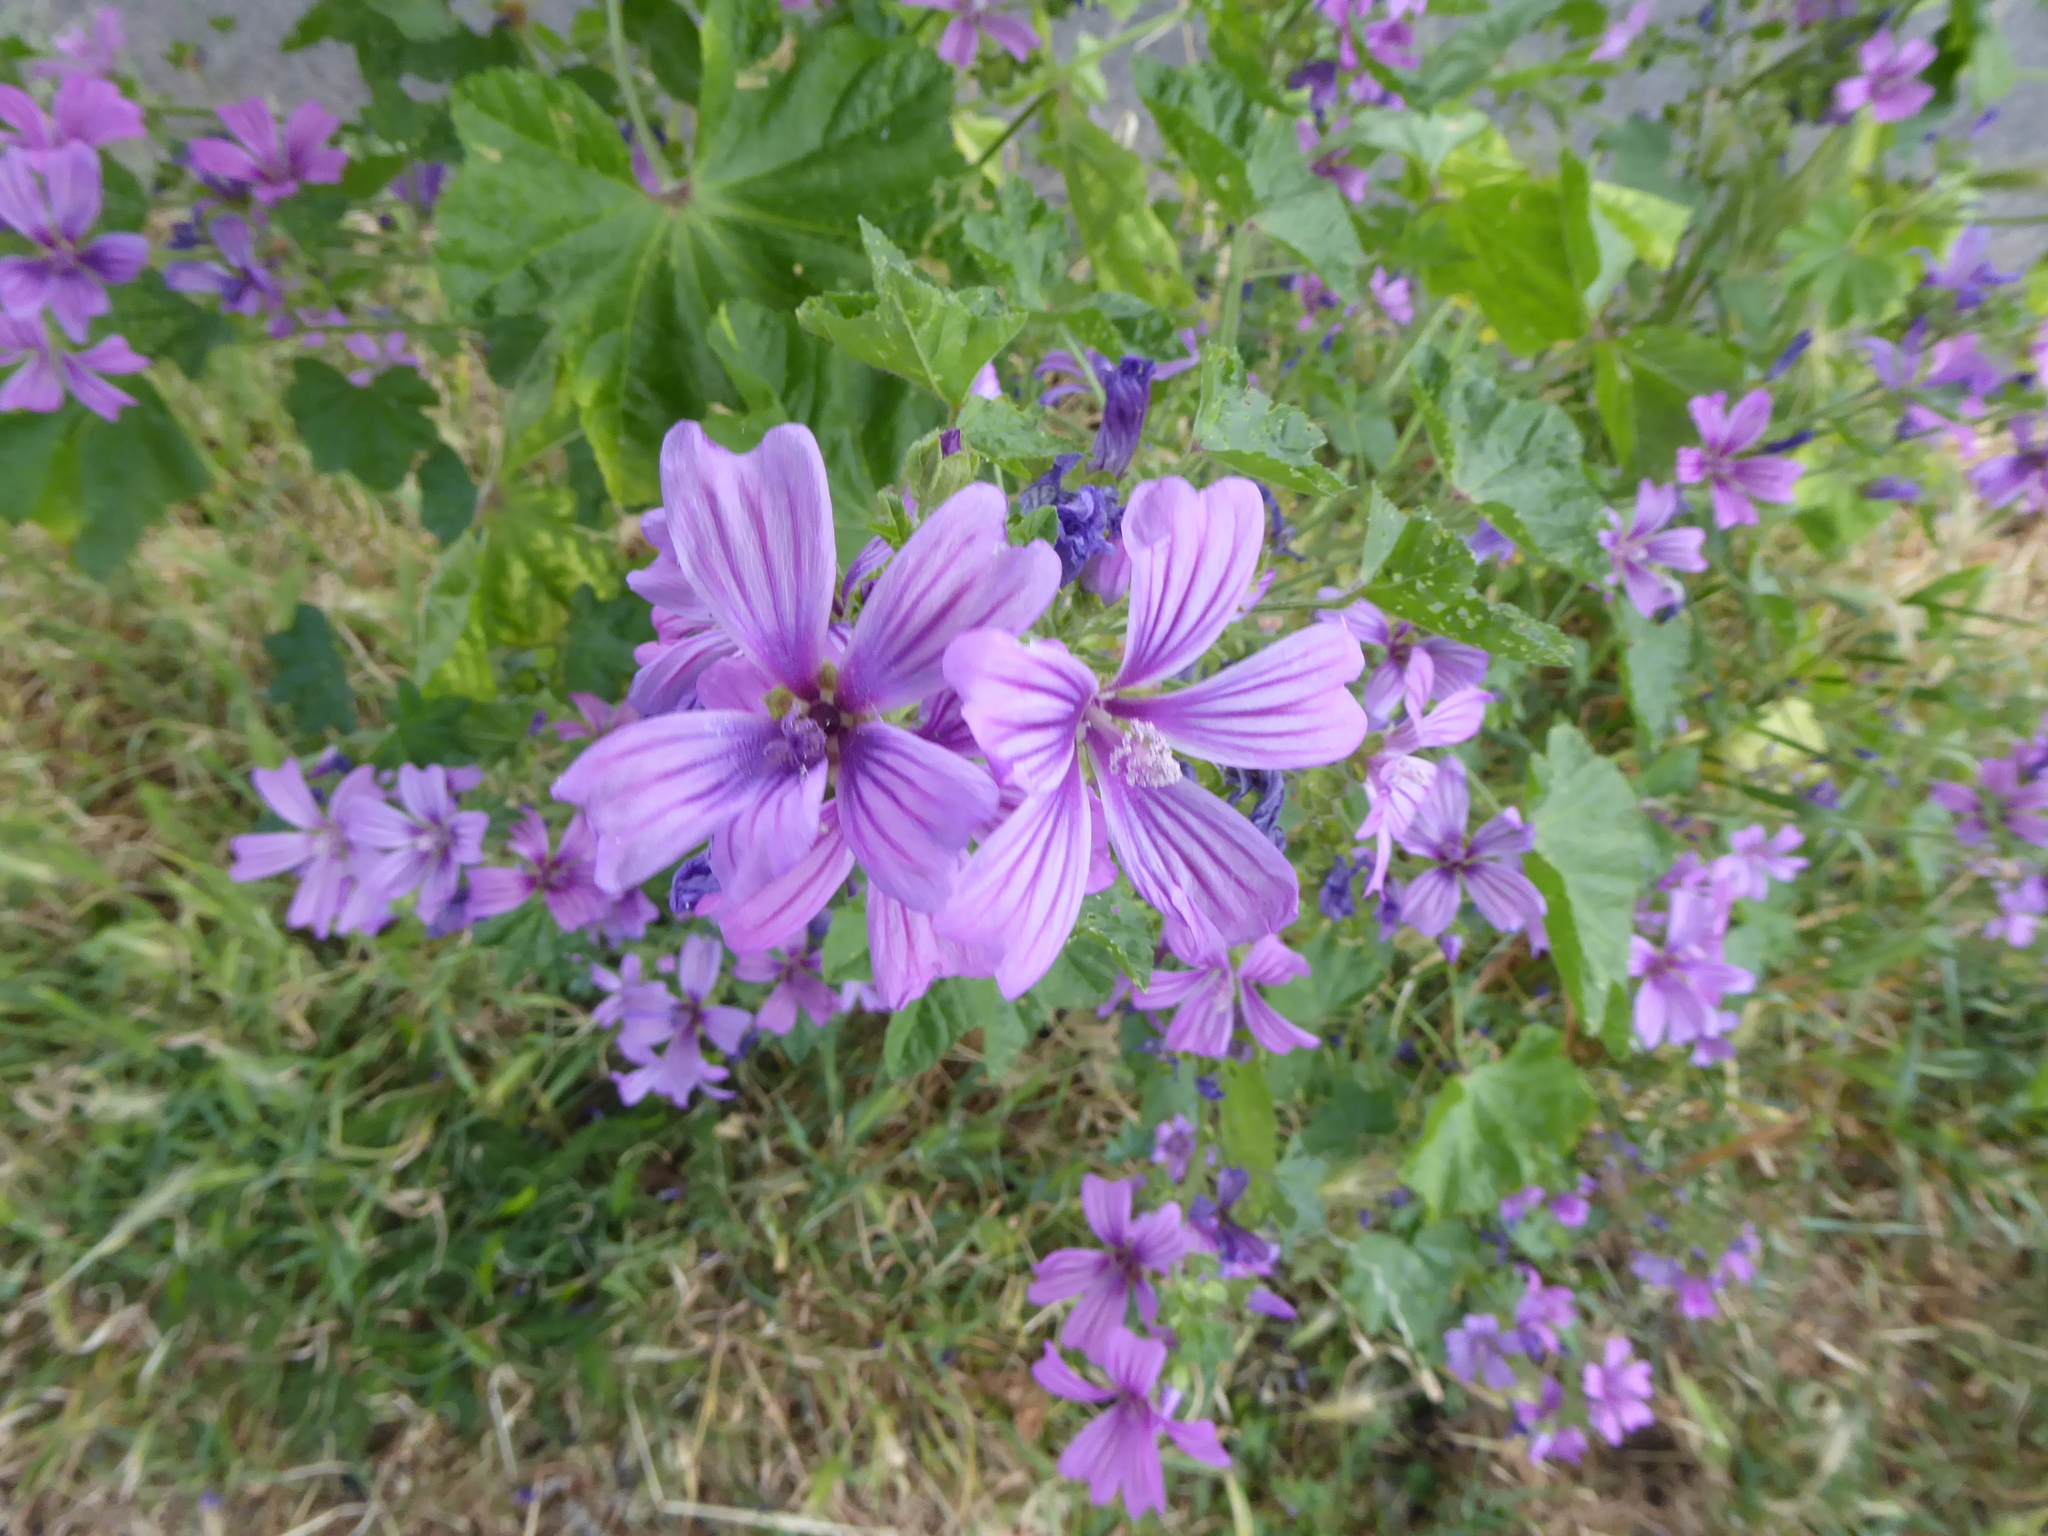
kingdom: Plantae
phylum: Tracheophyta
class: Magnoliopsida
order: Malvales
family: Malvaceae
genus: Malva
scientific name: Malva sylvestris
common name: Common mallow
